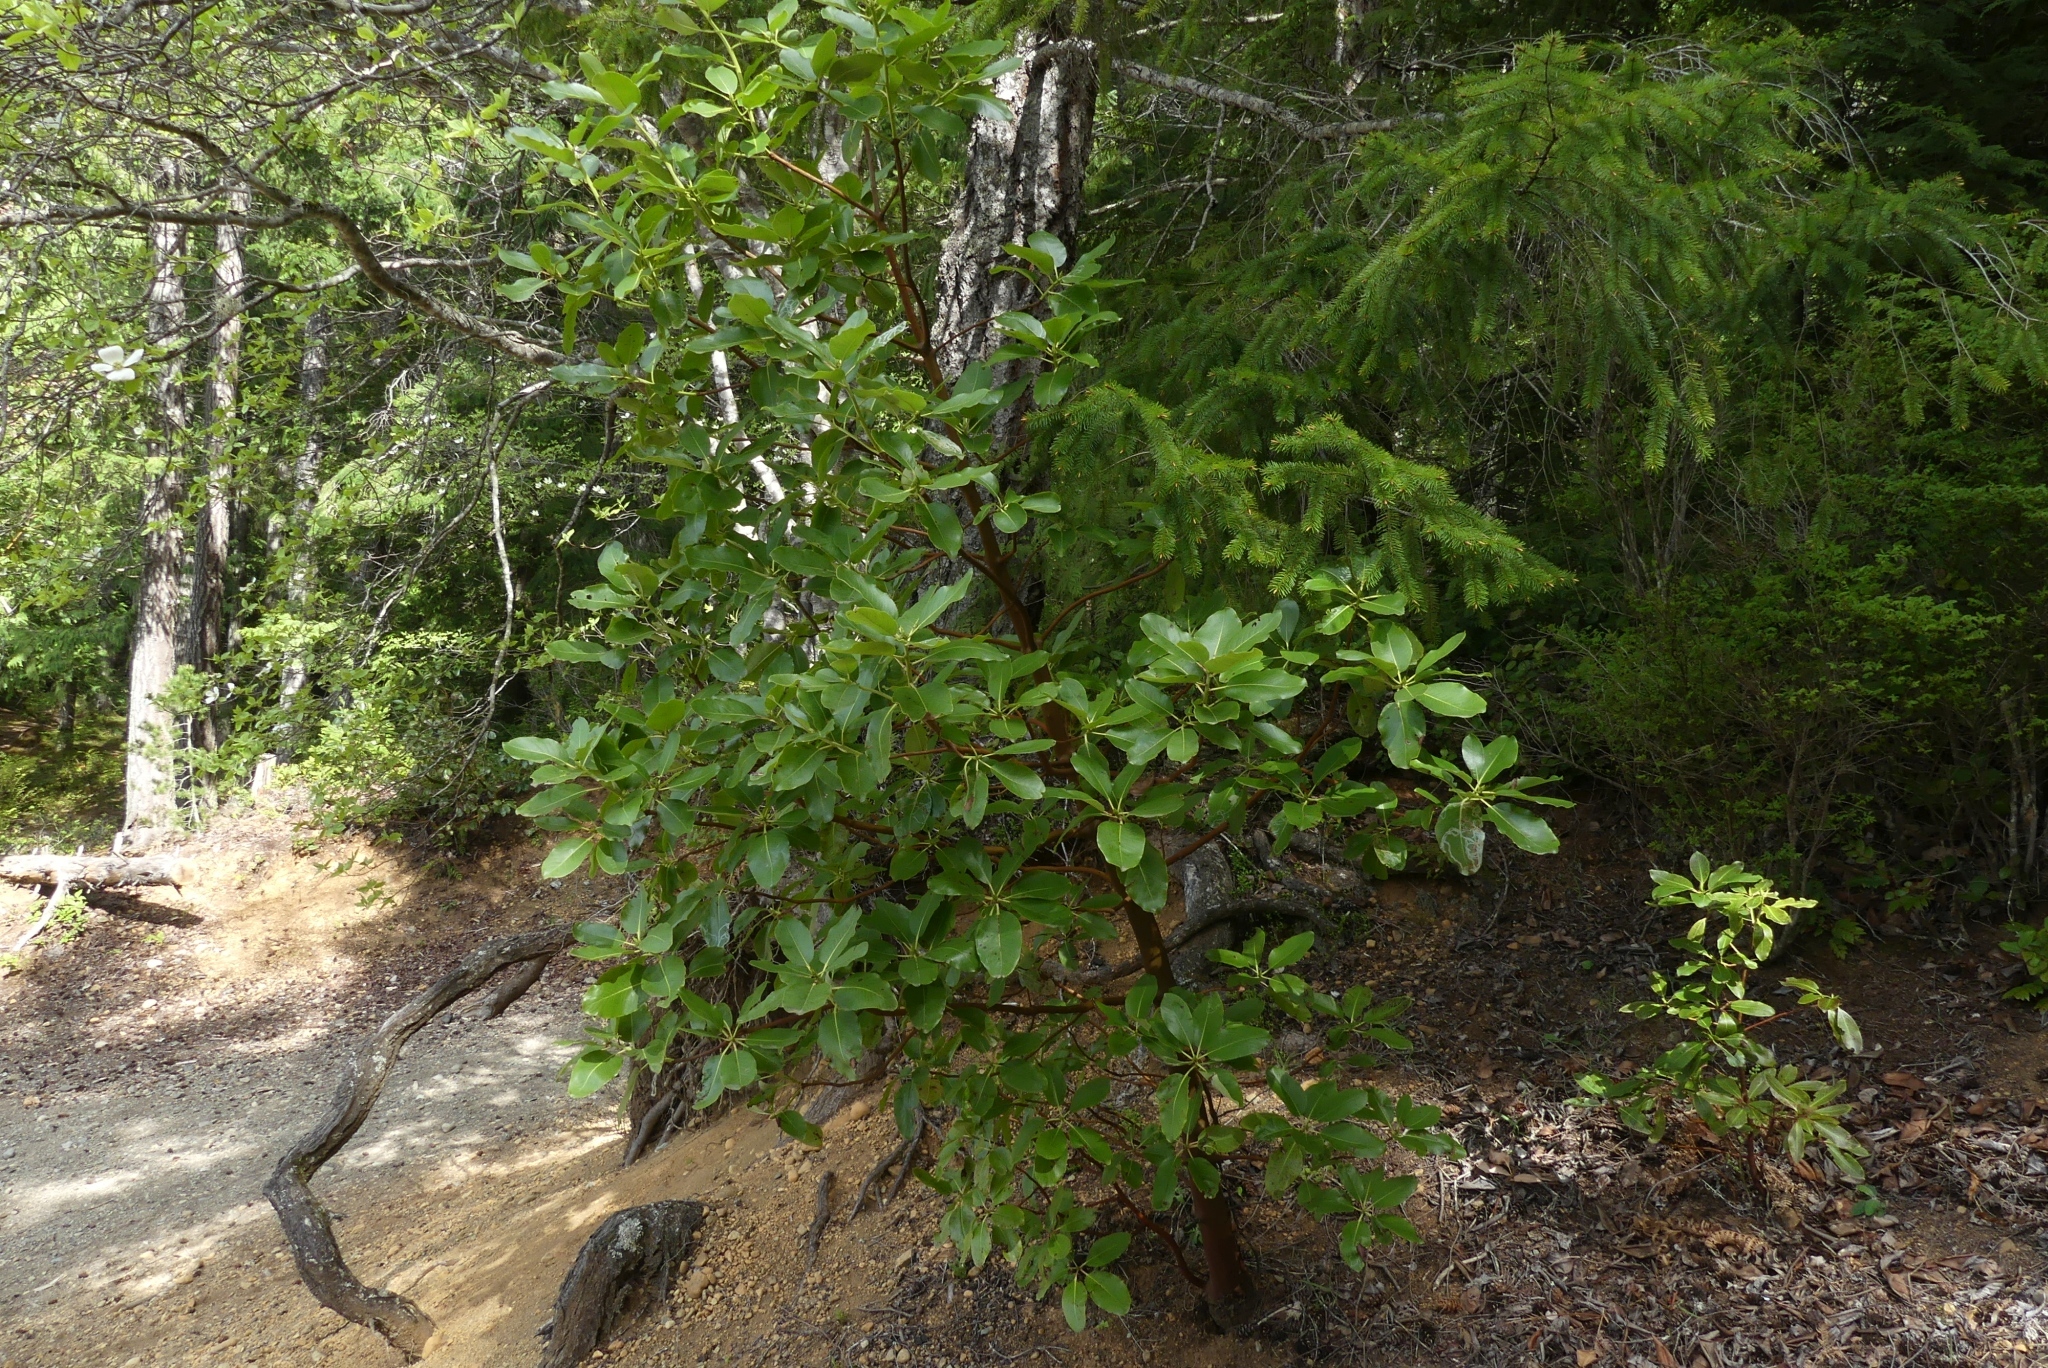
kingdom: Plantae
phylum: Tracheophyta
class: Magnoliopsida
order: Ericales
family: Ericaceae
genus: Arbutus
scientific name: Arbutus menziesii
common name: Pacific madrone
